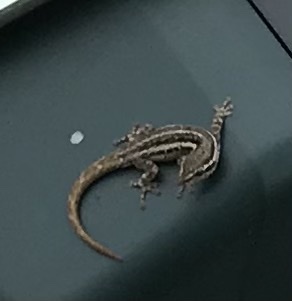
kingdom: Animalia
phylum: Chordata
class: Squamata
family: Gekkonidae
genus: Lygodactylus
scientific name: Lygodactylus capensis
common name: Cape dwarf gecko
